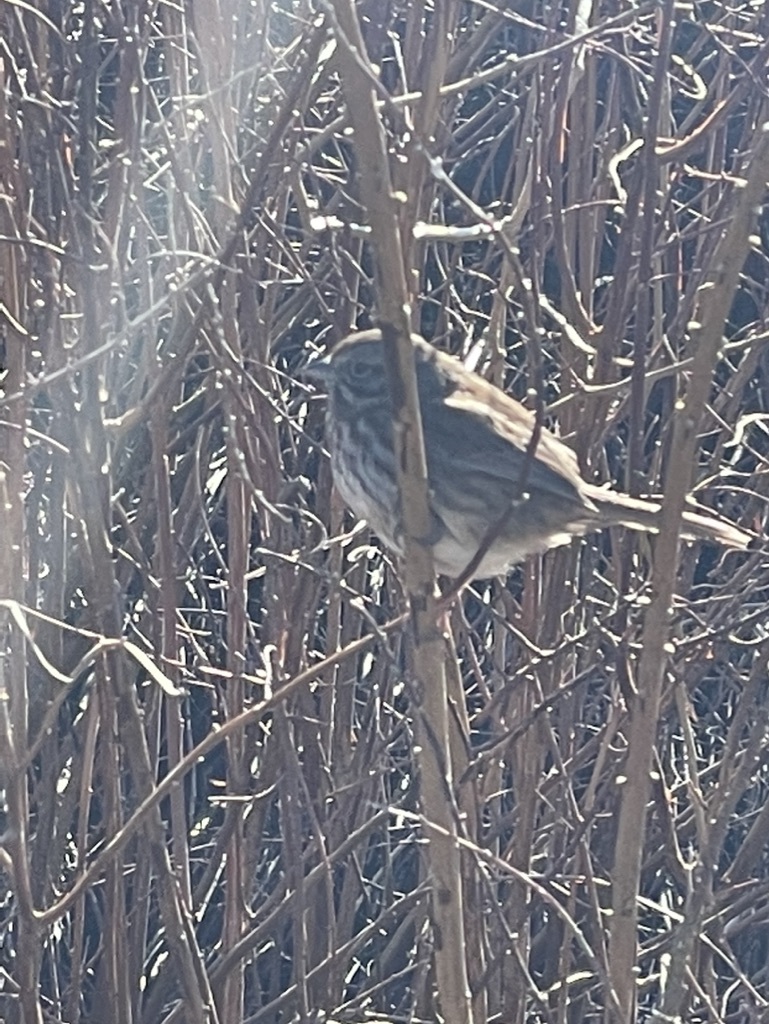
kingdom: Animalia
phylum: Chordata
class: Aves
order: Passeriformes
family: Passerellidae
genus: Melospiza
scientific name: Melospiza melodia
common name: Song sparrow
